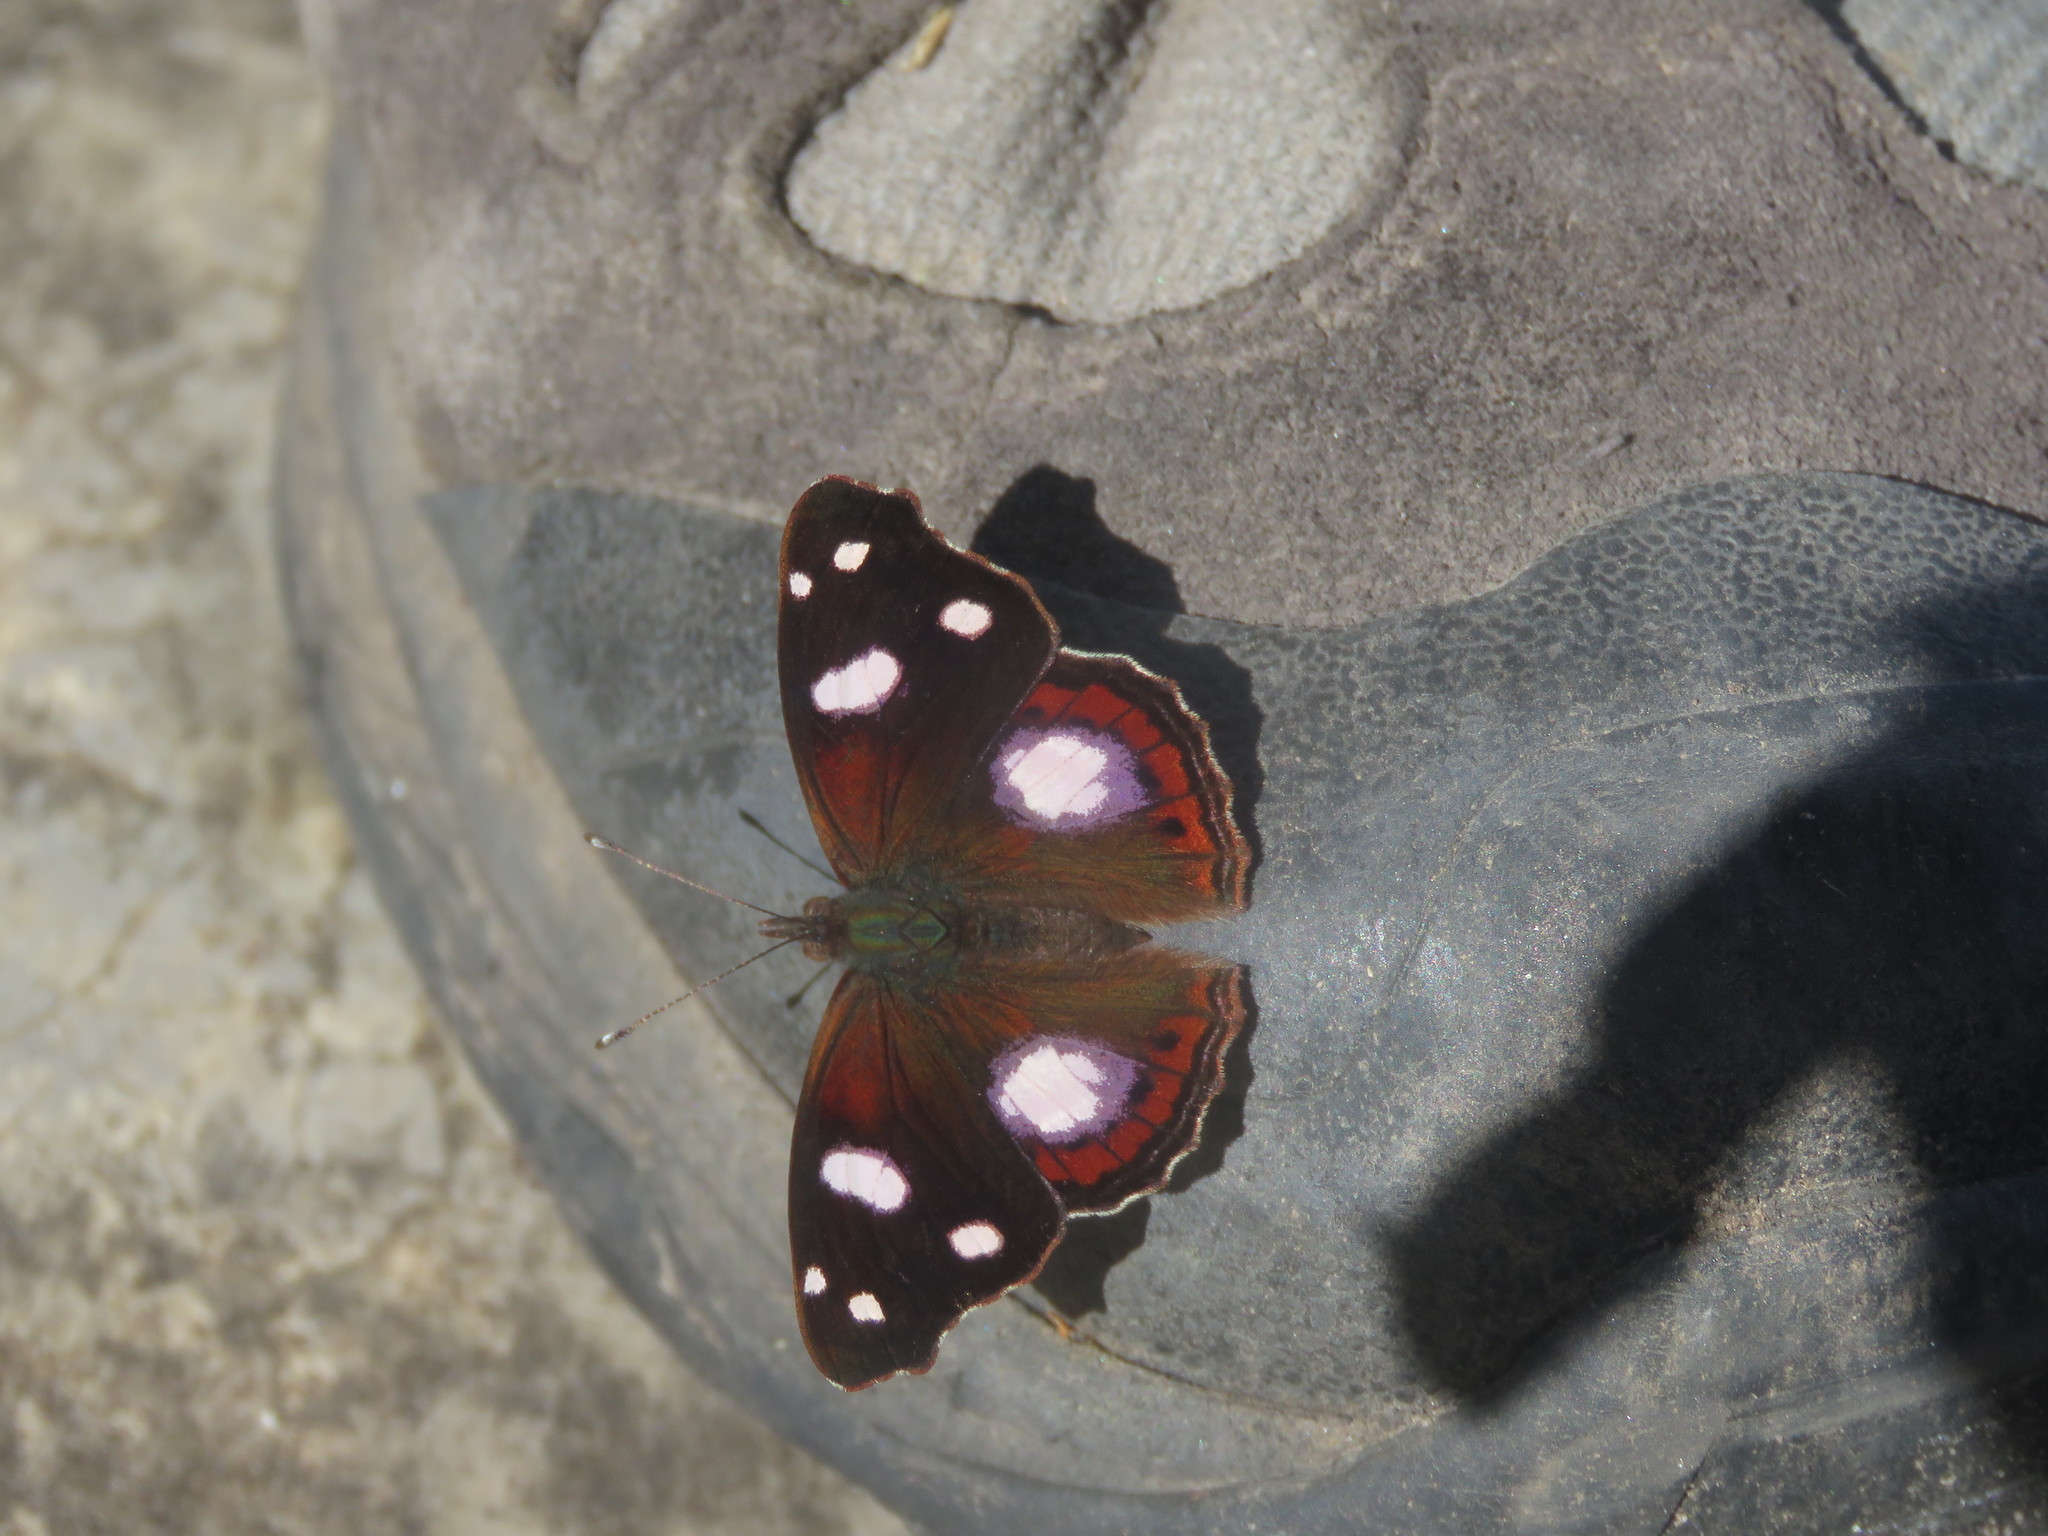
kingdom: Animalia
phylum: Arthropoda
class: Insecta
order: Lepidoptera
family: Nymphalidae
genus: Cybdelis
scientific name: Cybdelis
